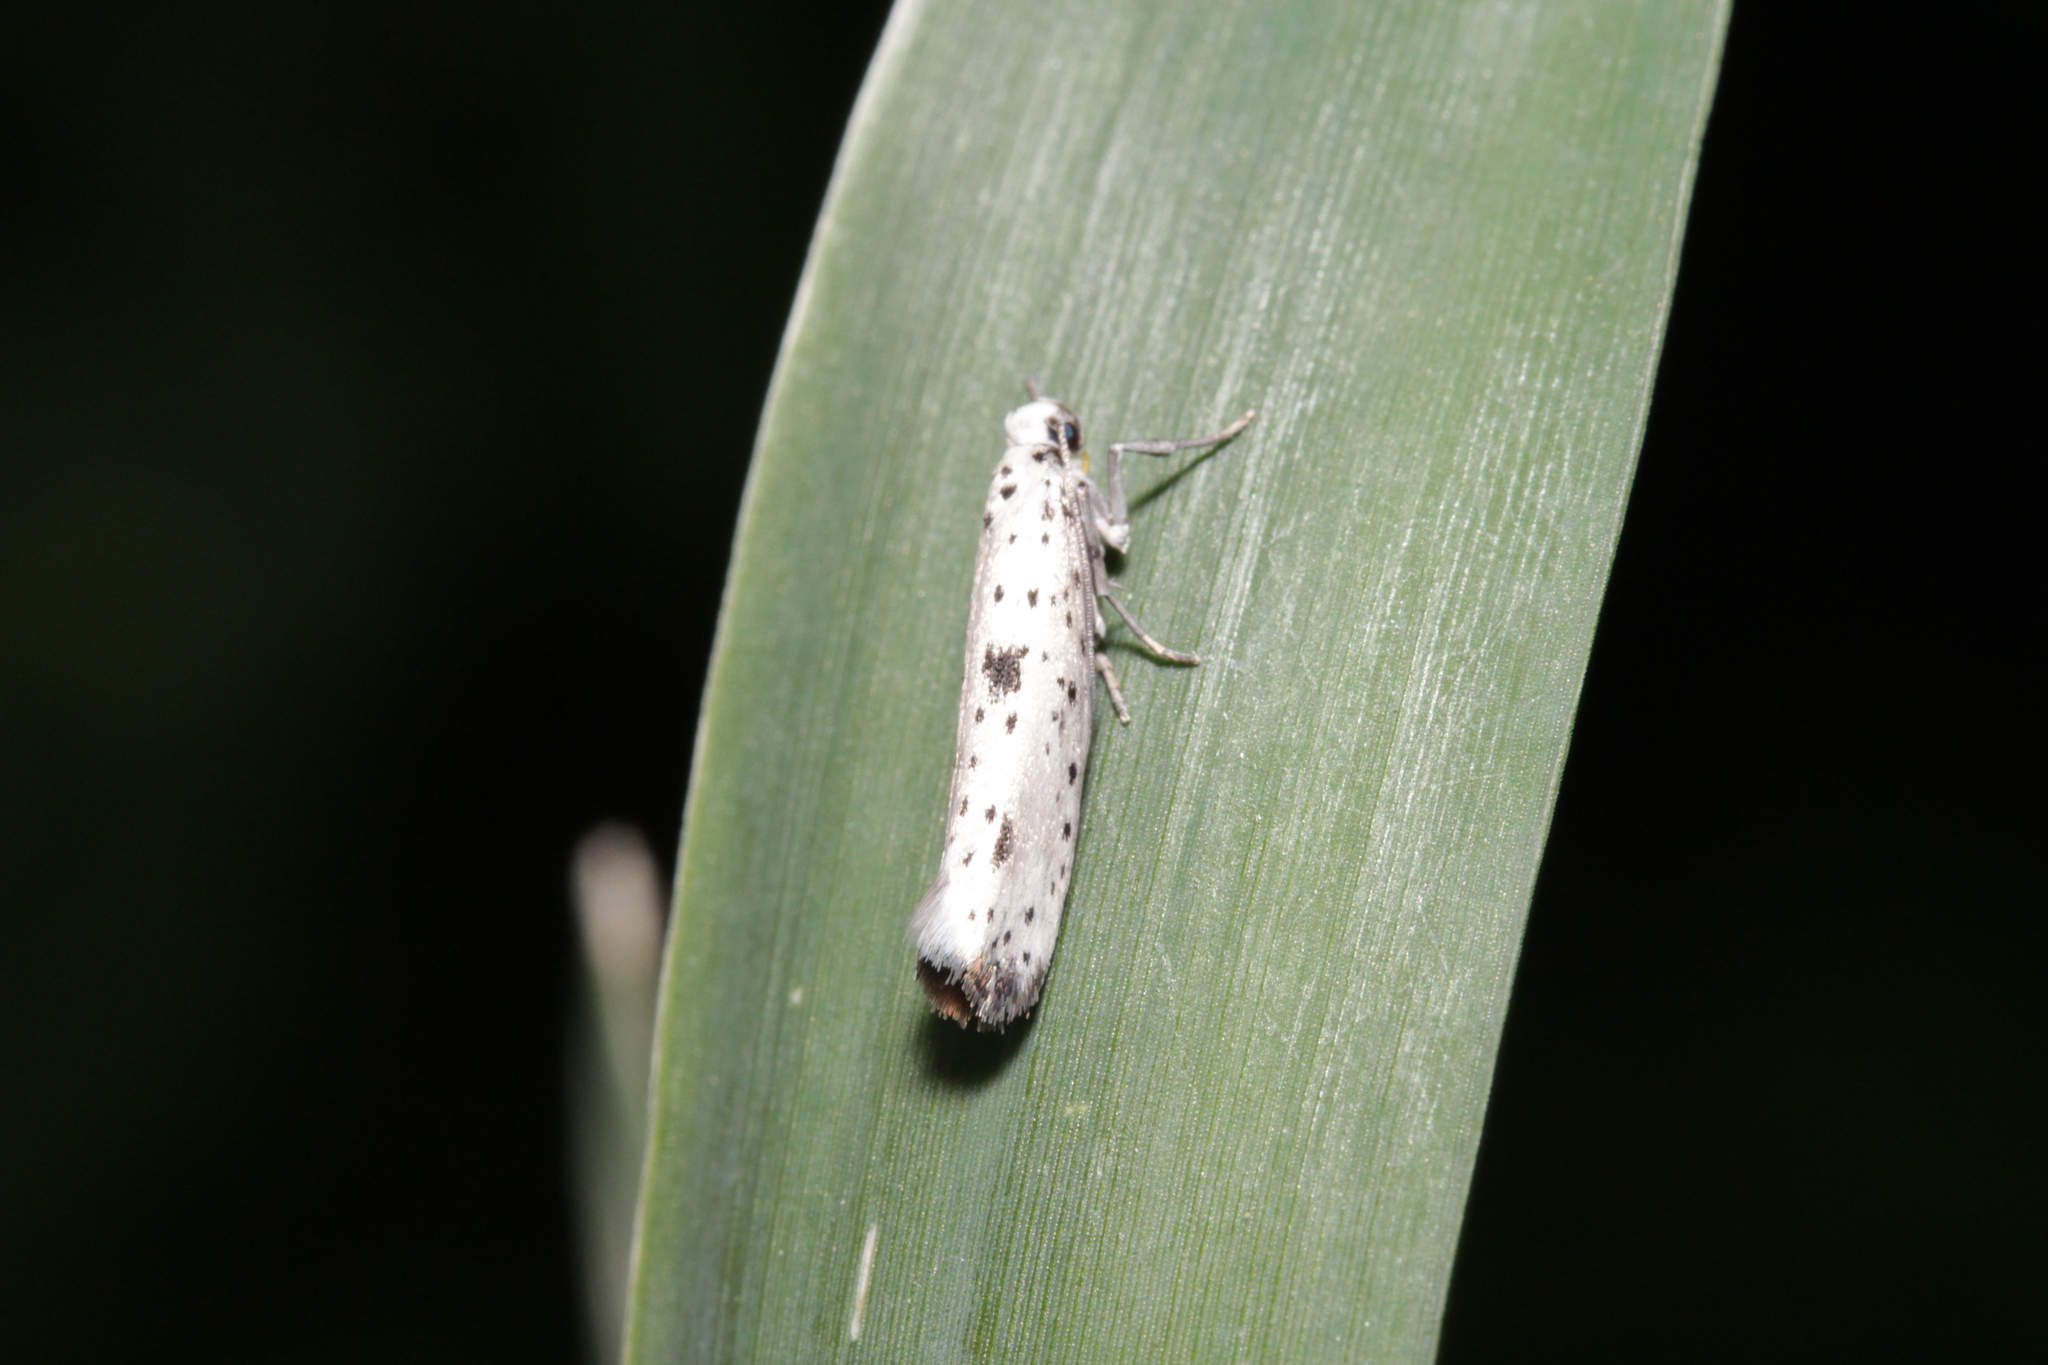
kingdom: Animalia
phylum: Arthropoda
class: Insecta
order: Lepidoptera
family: Yponomeutidae
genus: Yponomeuta
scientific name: Yponomeuta plumbella
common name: Black-tipped ermine
